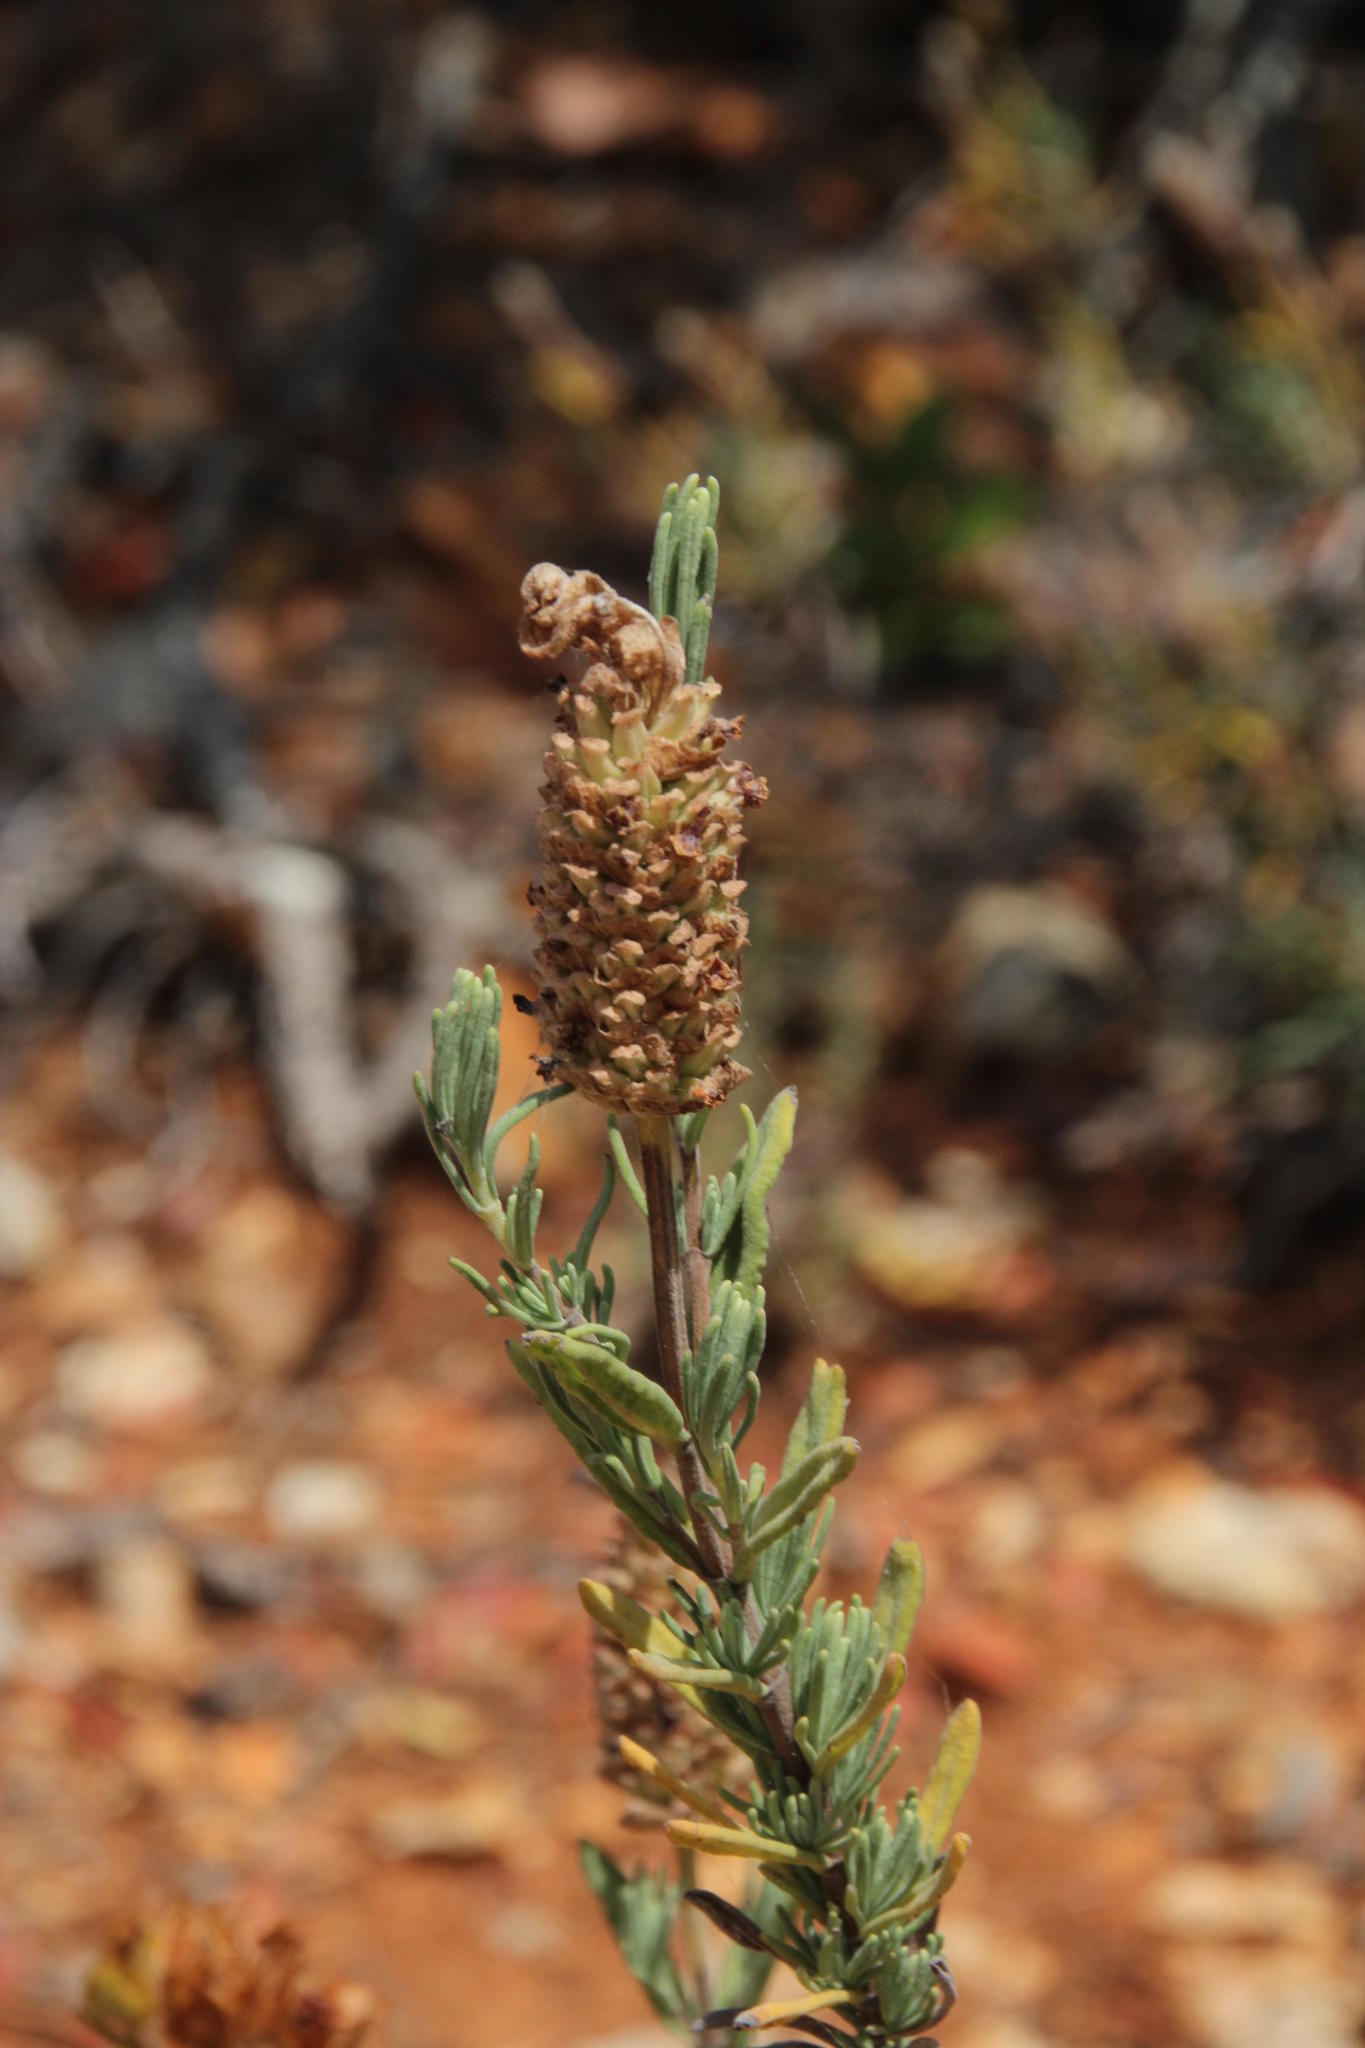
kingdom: Plantae
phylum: Tracheophyta
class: Magnoliopsida
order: Lamiales
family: Lamiaceae
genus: Lavandula
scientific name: Lavandula stoechas
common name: French lavender
